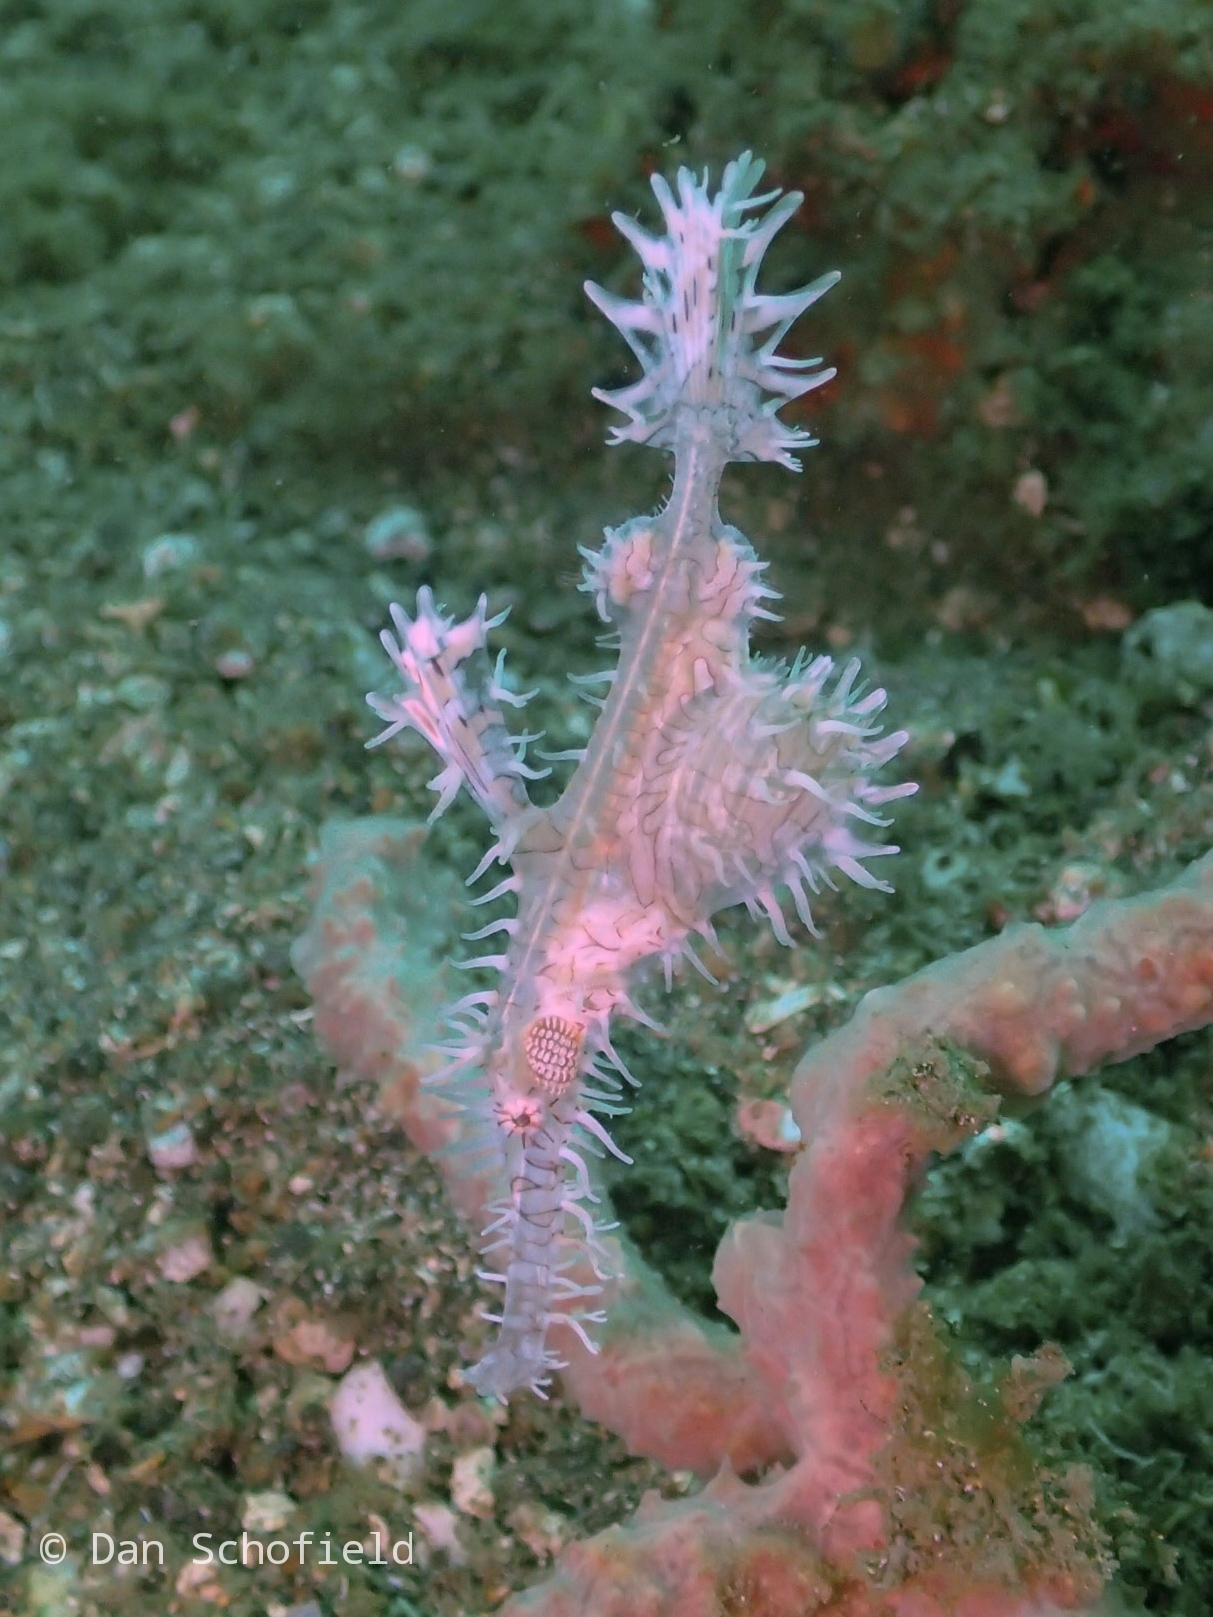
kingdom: Animalia
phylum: Chordata
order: Syngnathiformes
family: Solenostomidae
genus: Solenostomus
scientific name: Solenostomus paradoxus
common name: Ghost pipefish
